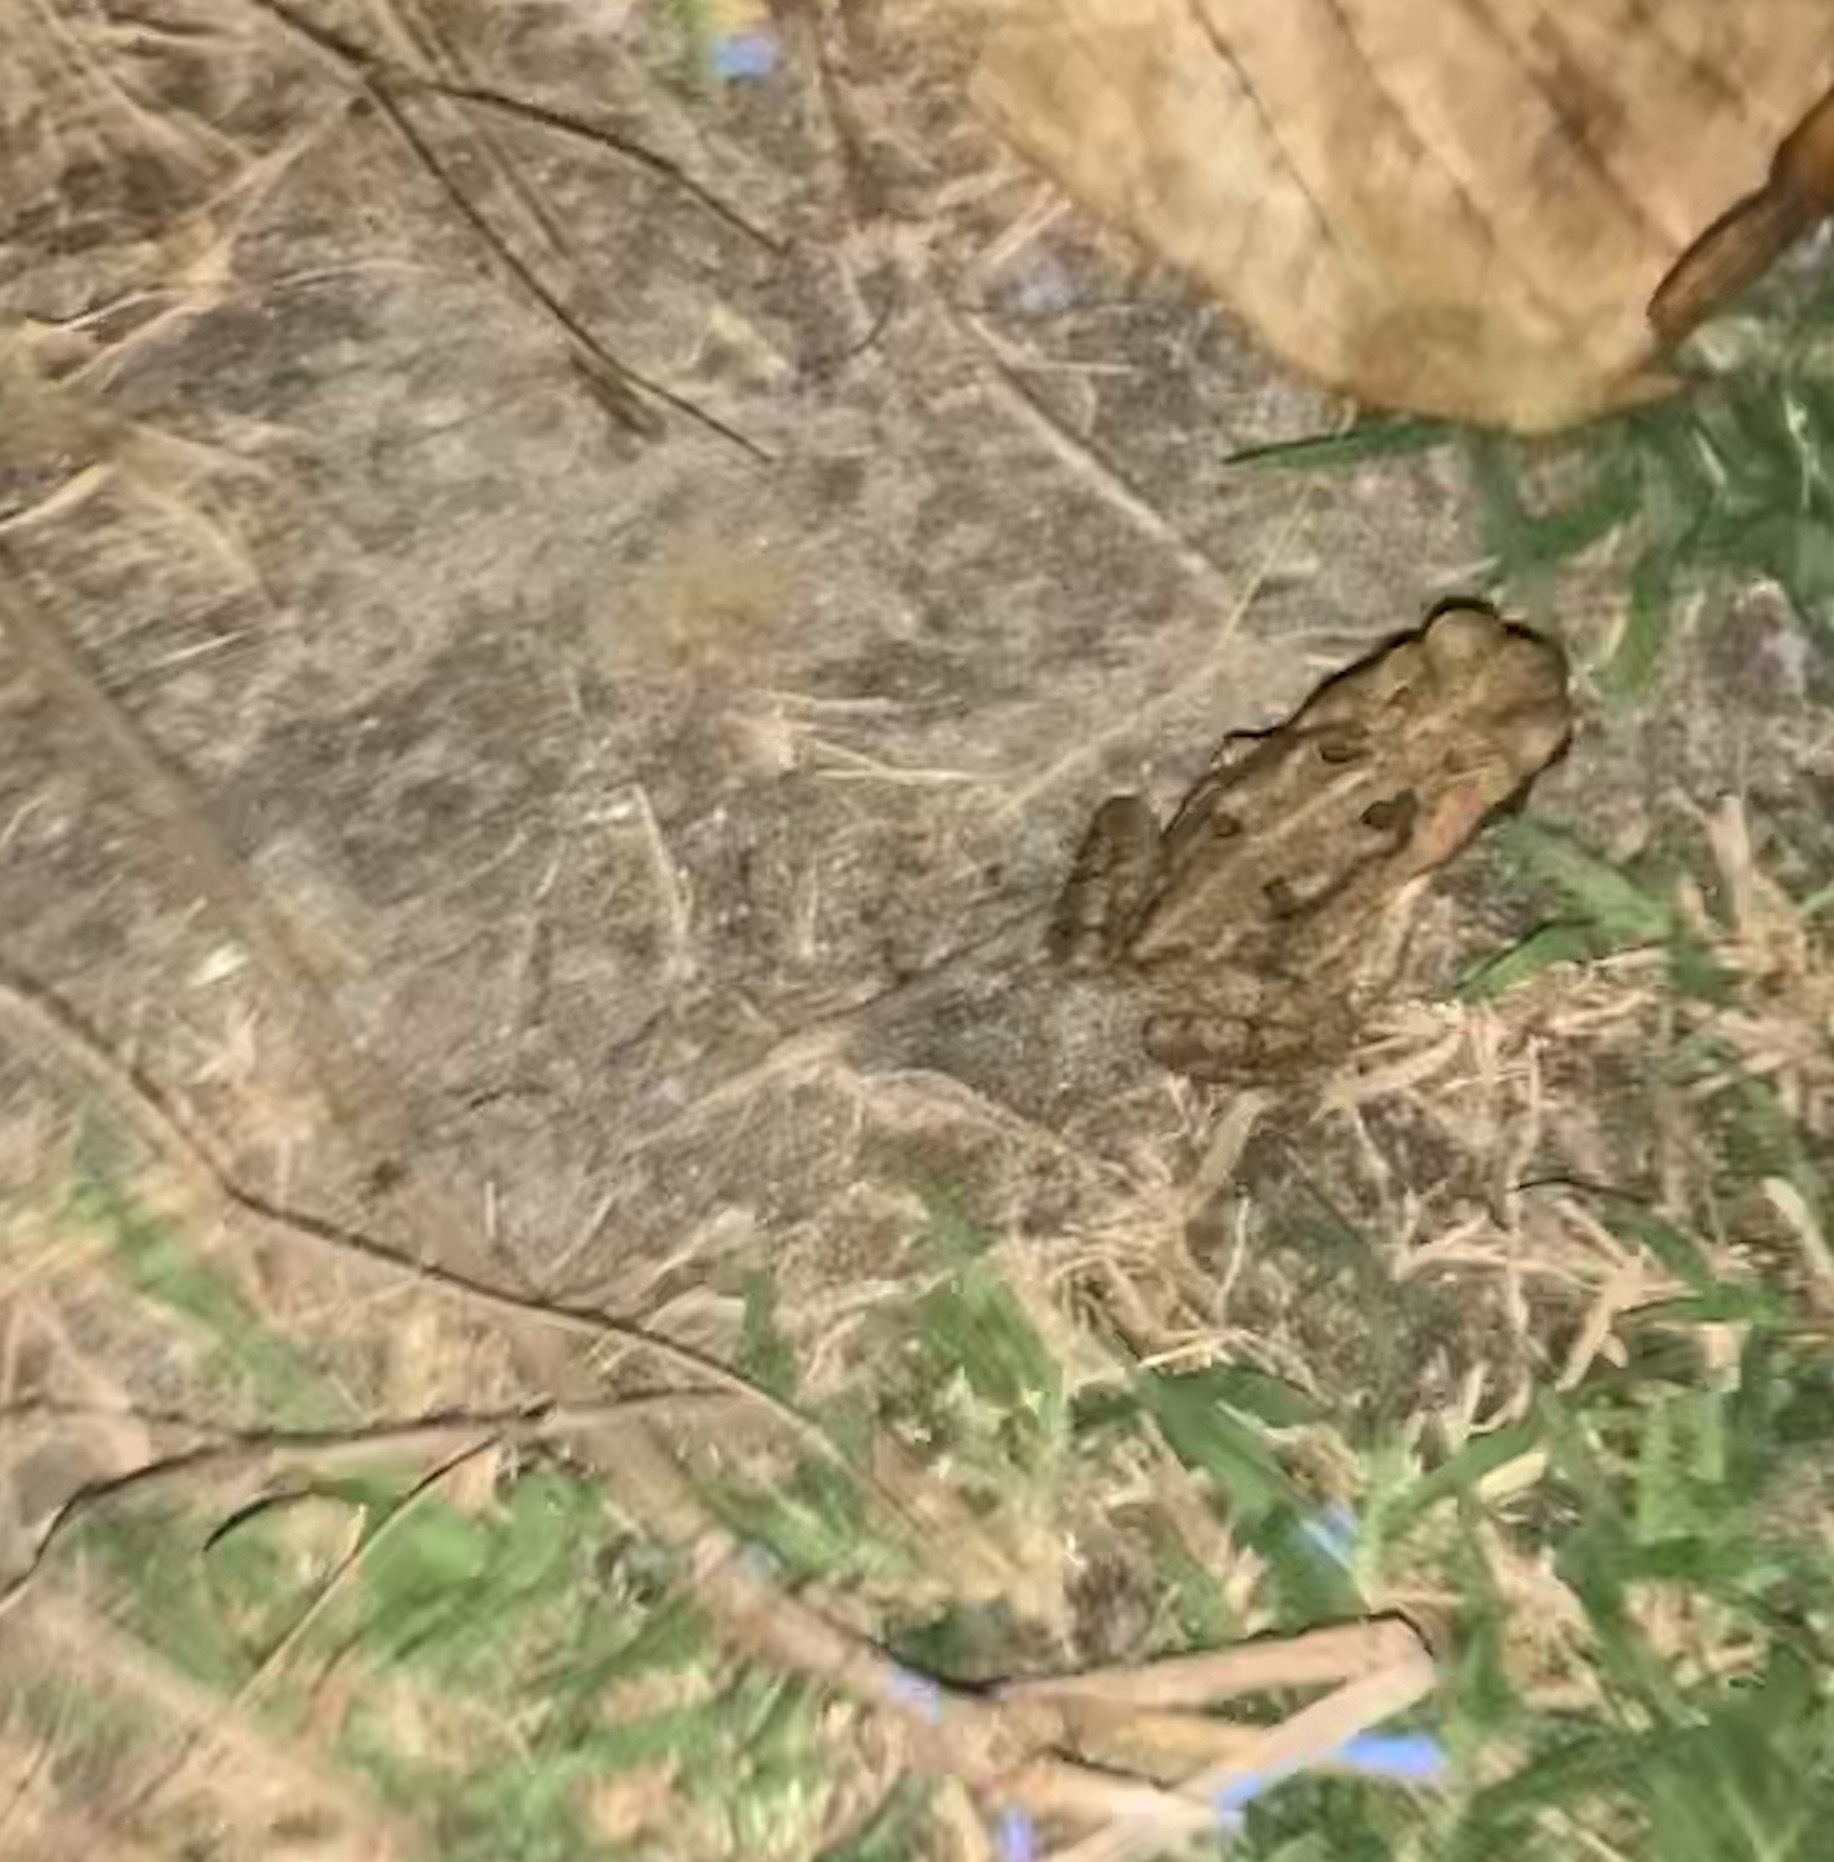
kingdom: Animalia
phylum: Chordata
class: Amphibia
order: Anura
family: Bufonidae
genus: Rhinella
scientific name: Rhinella marina
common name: Cane toad
